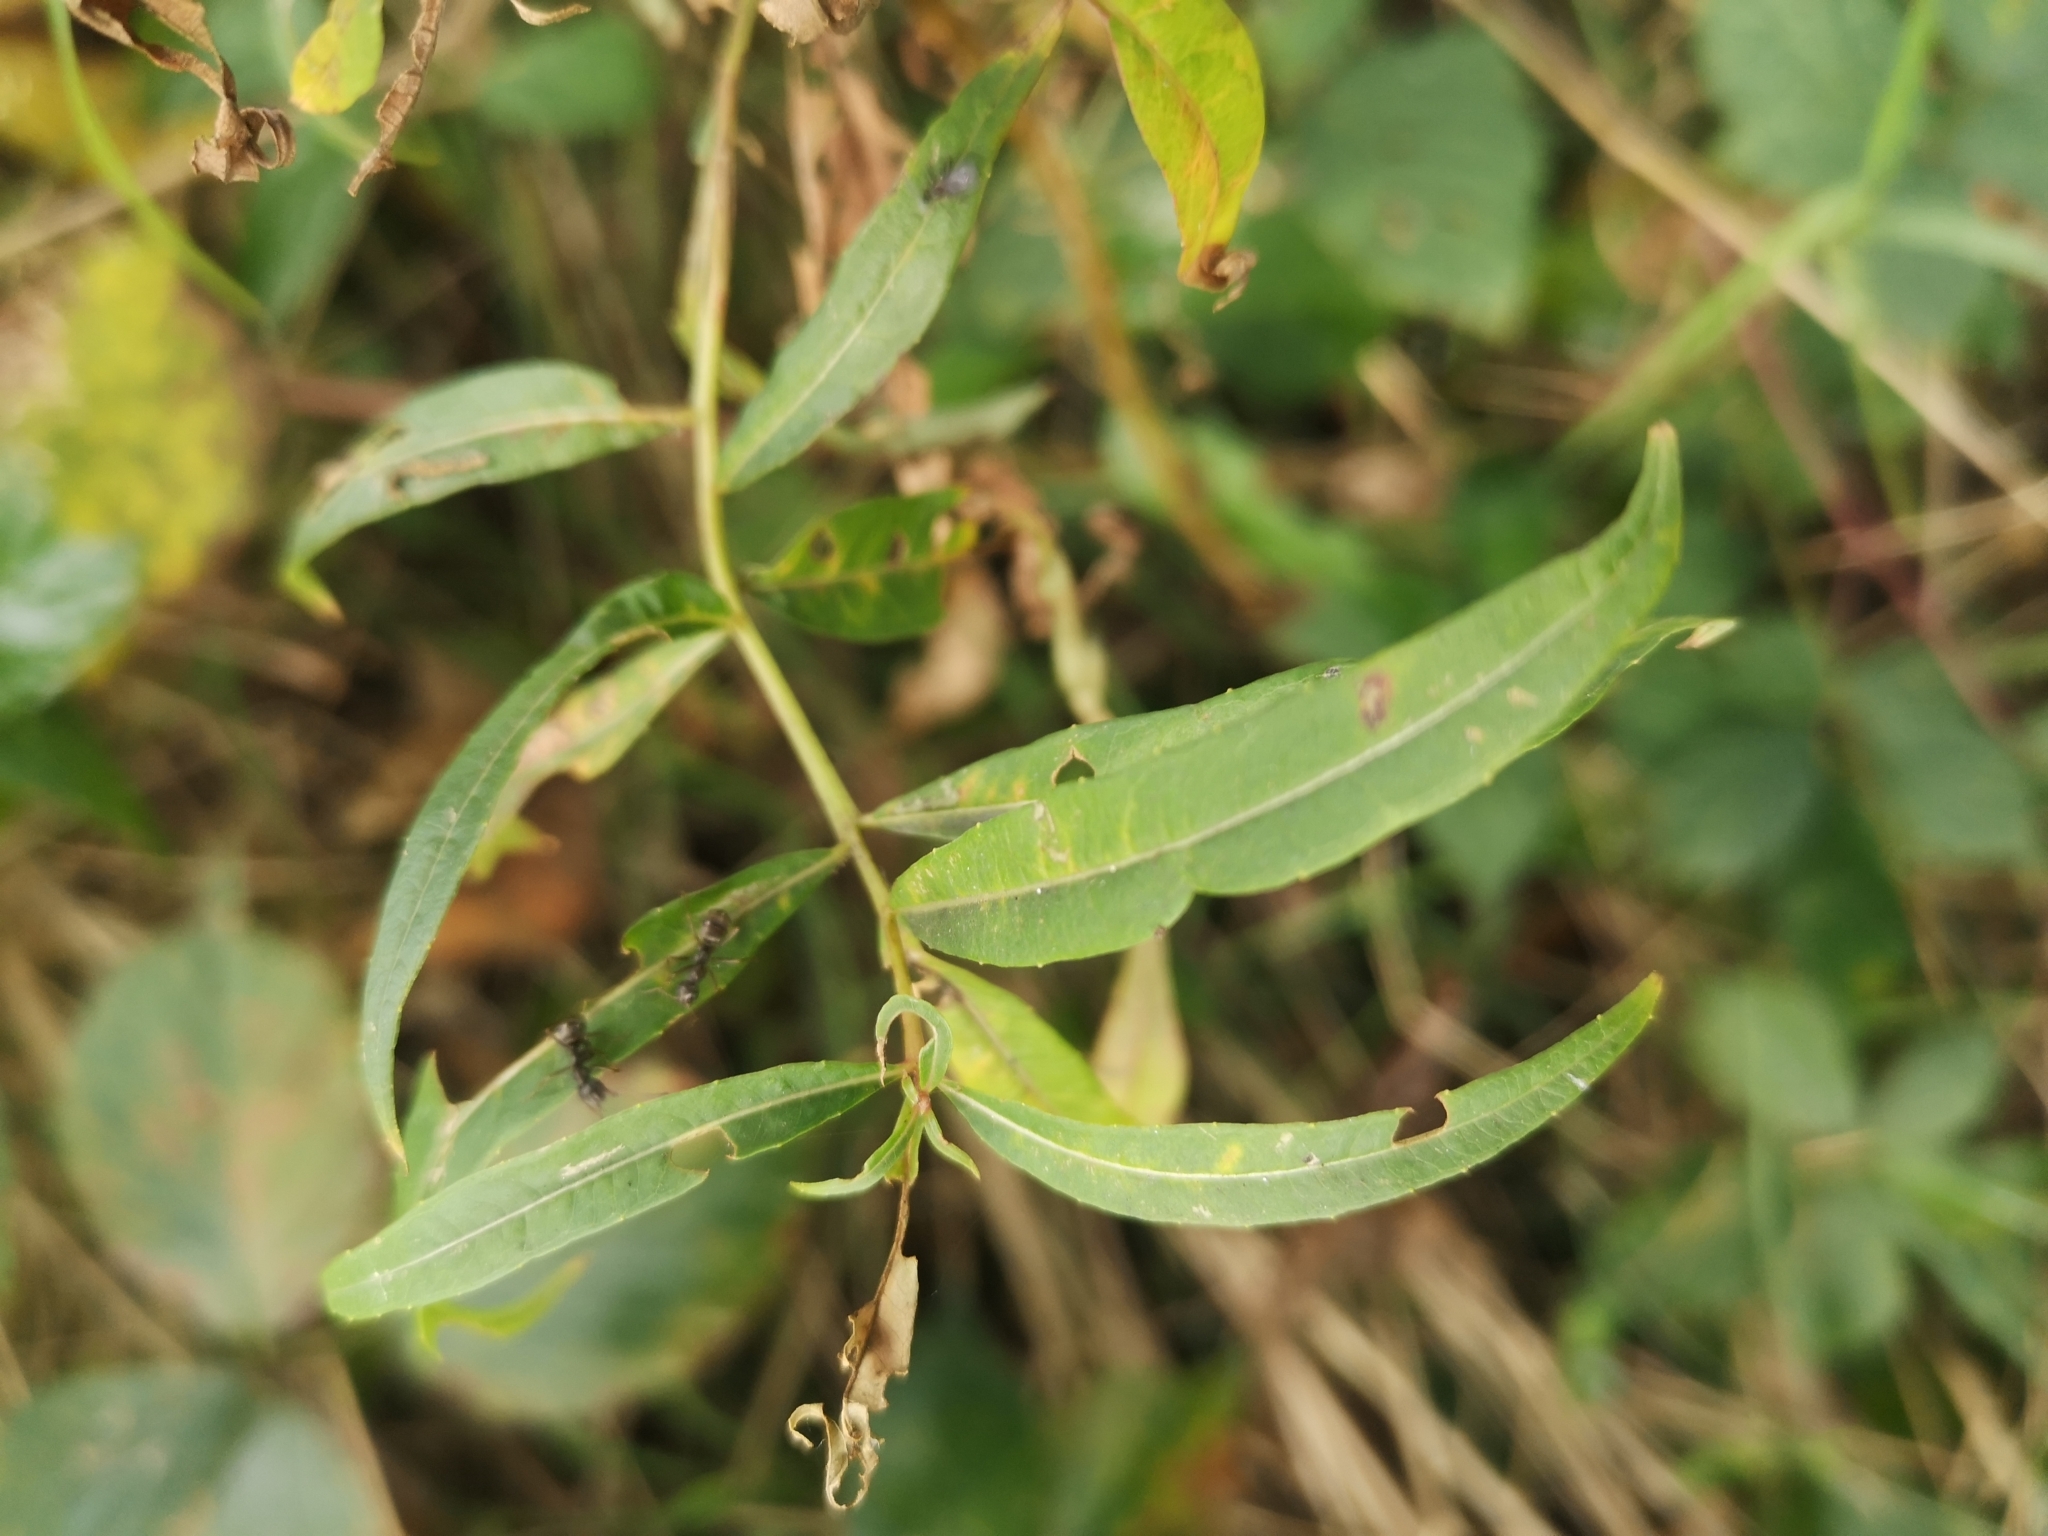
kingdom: Plantae
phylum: Tracheophyta
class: Magnoliopsida
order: Myrtales
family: Onagraceae
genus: Chamaenerion
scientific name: Chamaenerion angustifolium
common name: Fireweed
